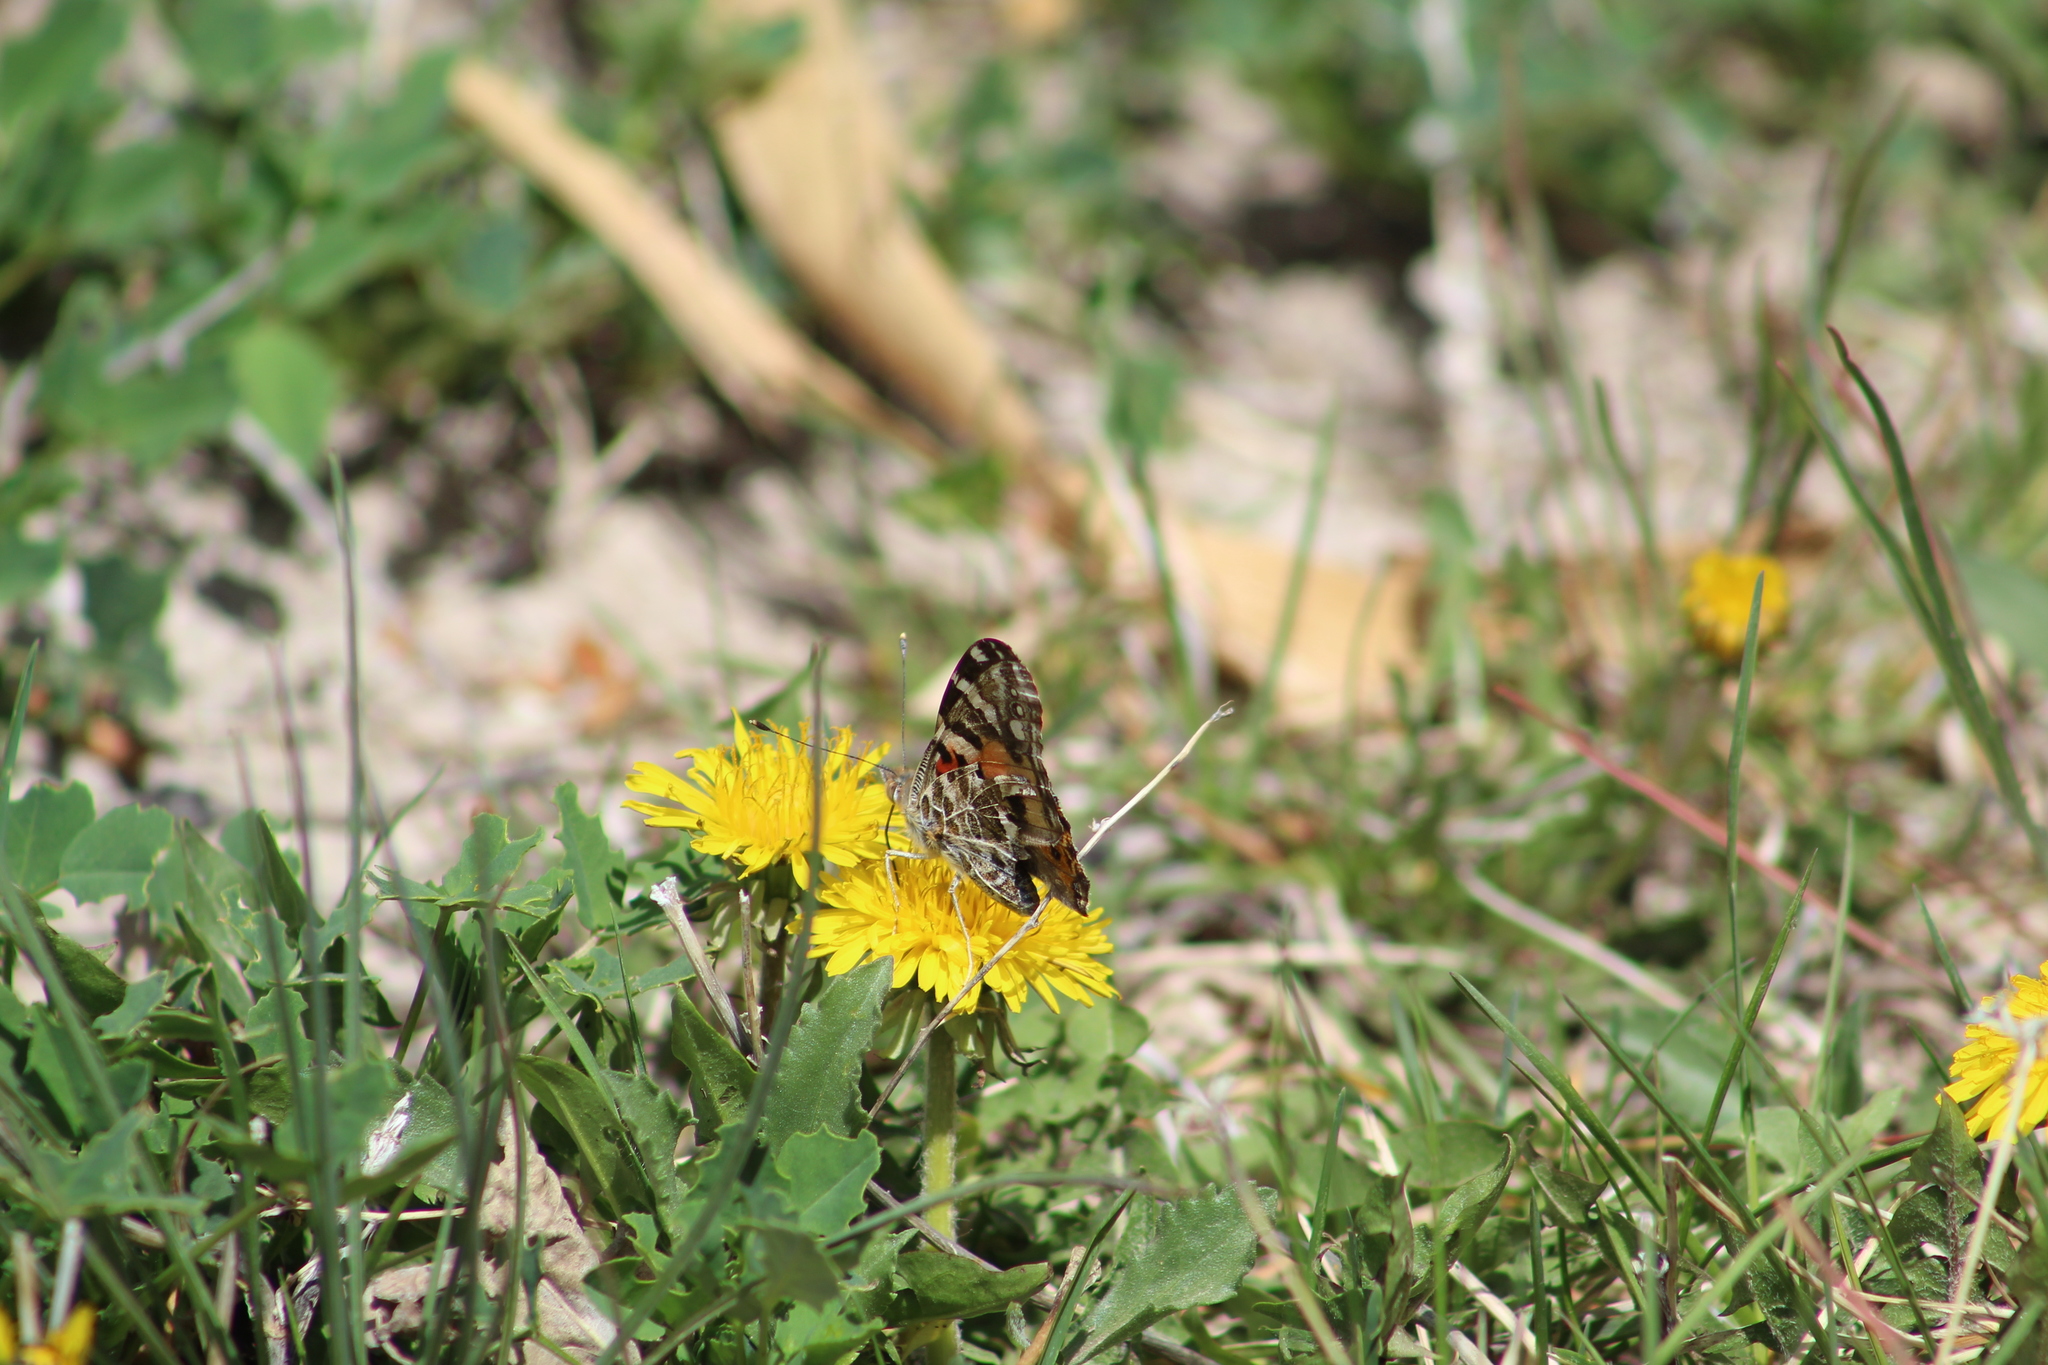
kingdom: Animalia
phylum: Arthropoda
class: Insecta
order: Lepidoptera
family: Nymphalidae
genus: Vanessa
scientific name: Vanessa cardui
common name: Painted lady
